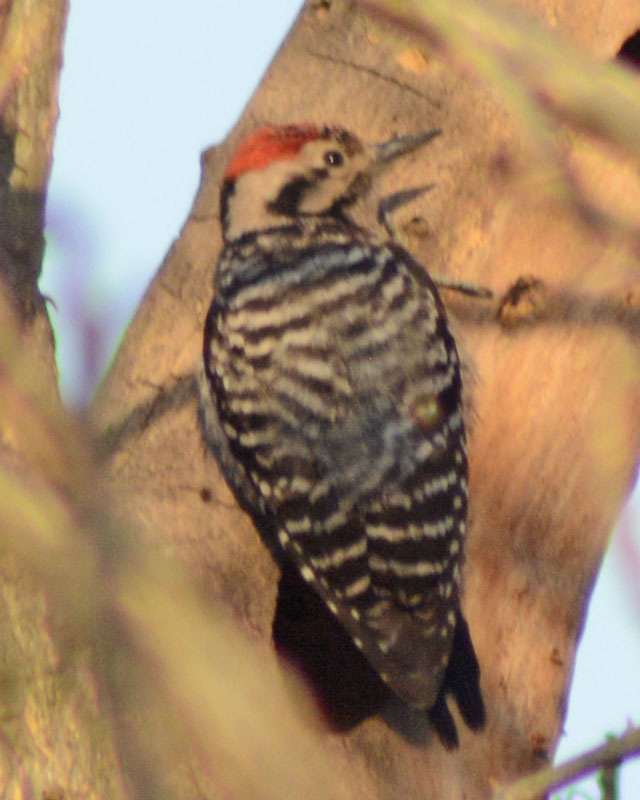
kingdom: Animalia
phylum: Chordata
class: Aves
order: Piciformes
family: Picidae
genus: Dryobates
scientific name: Dryobates scalaris
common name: Ladder-backed woodpecker
